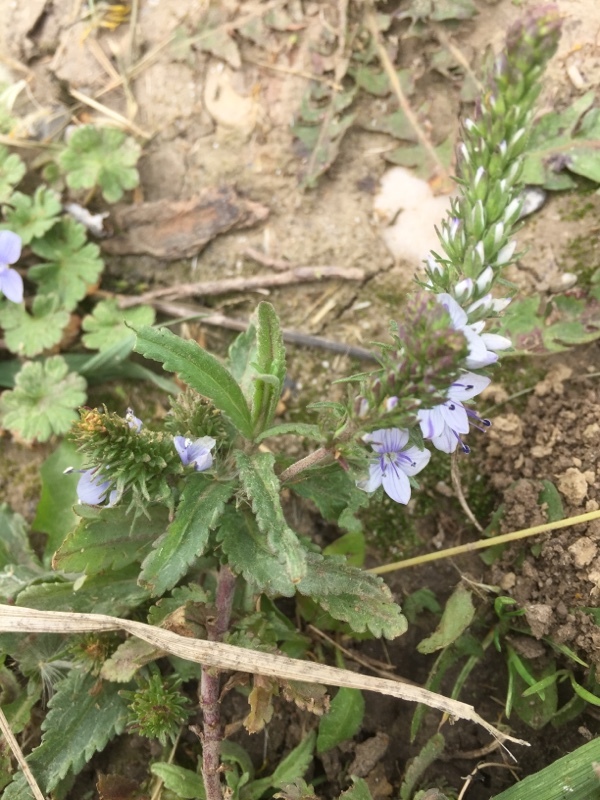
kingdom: Plantae
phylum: Tracheophyta
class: Magnoliopsida
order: Lamiales
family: Plantaginaceae
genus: Veronica
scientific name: Veronica austriaca
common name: Large speedwell
